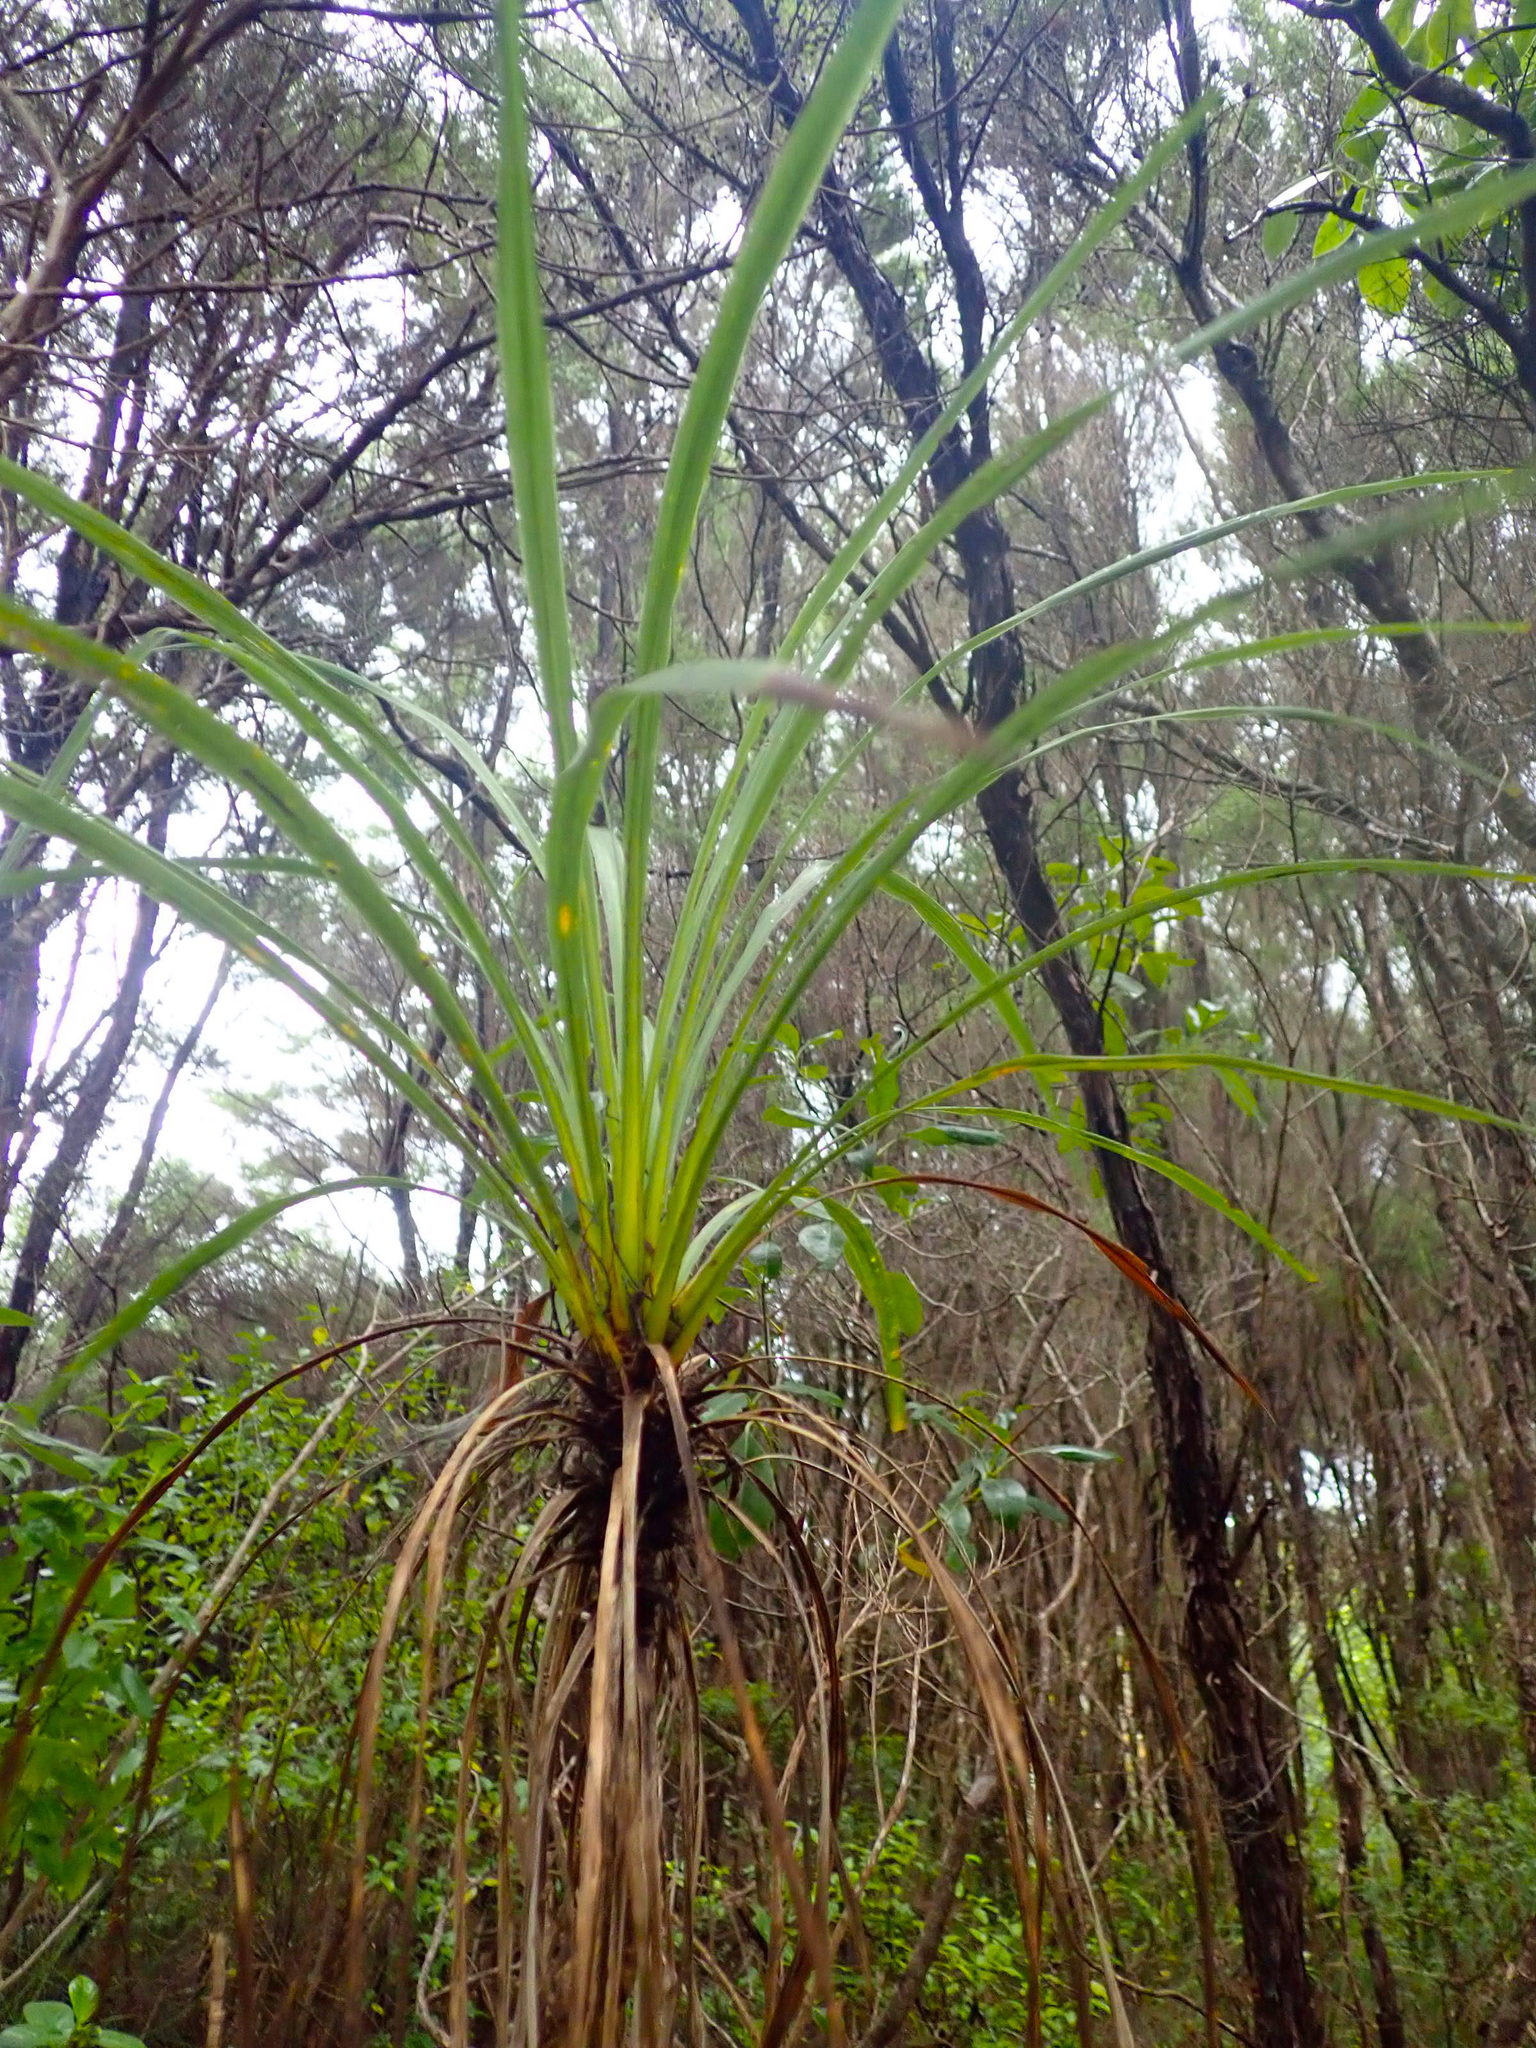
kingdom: Plantae
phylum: Tracheophyta
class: Liliopsida
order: Asparagales
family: Asparagaceae
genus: Cordyline
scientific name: Cordyline australis
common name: Cabbage-palm
